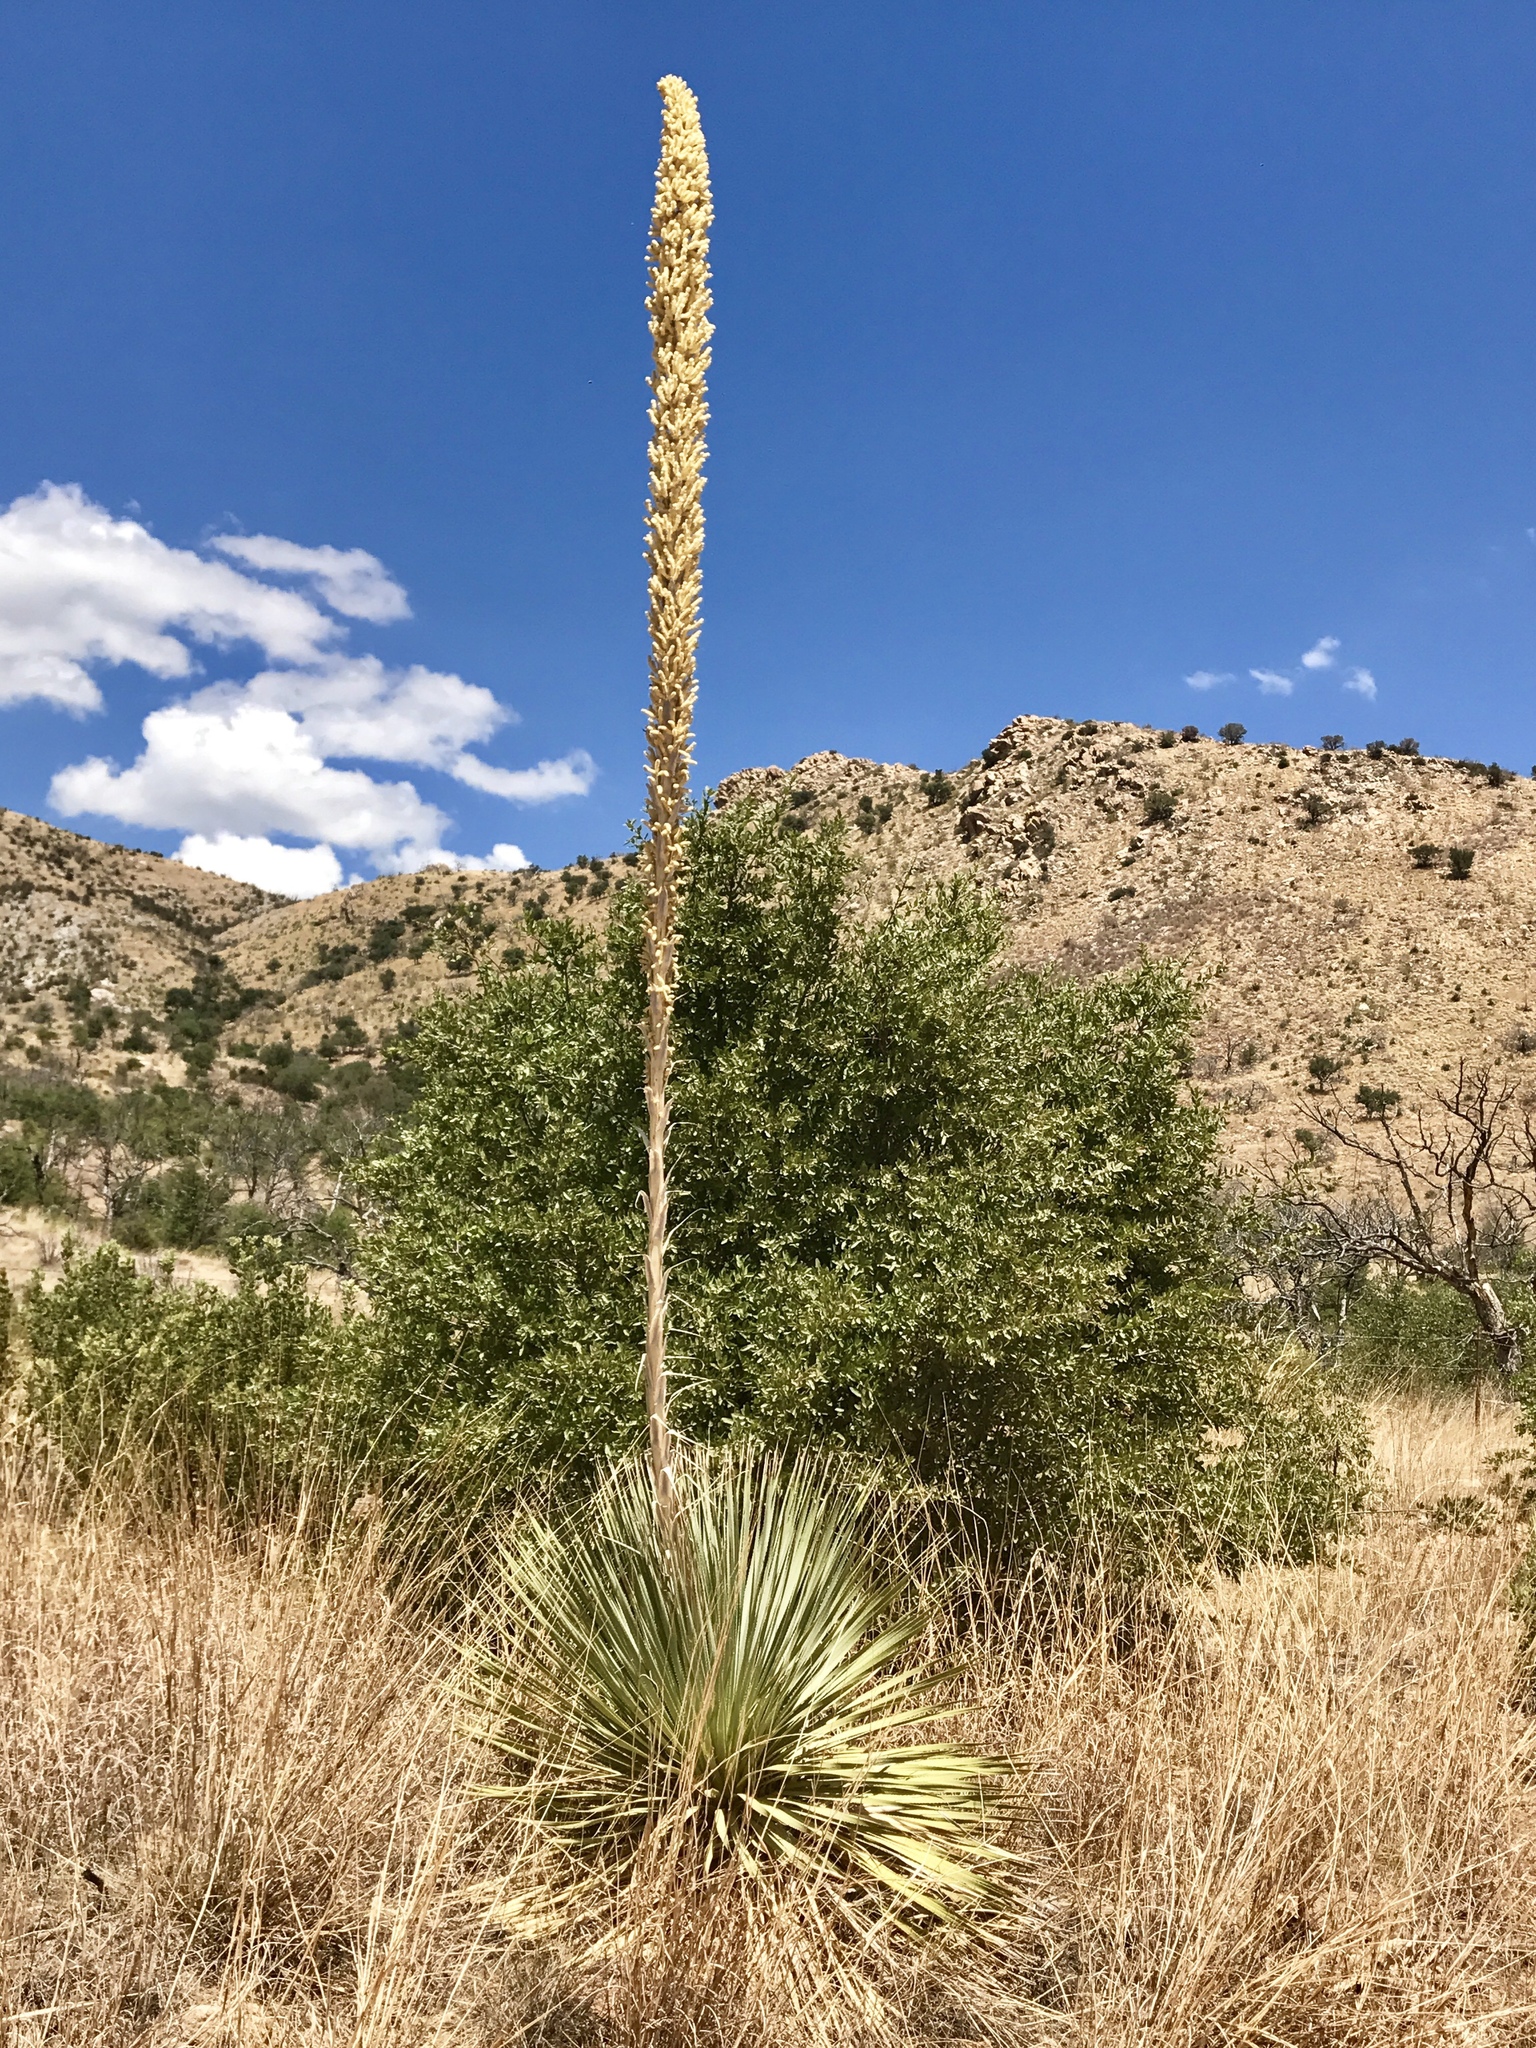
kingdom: Plantae
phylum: Tracheophyta
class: Liliopsida
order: Asparagales
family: Asparagaceae
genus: Dasylirion
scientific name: Dasylirion wheeleri
